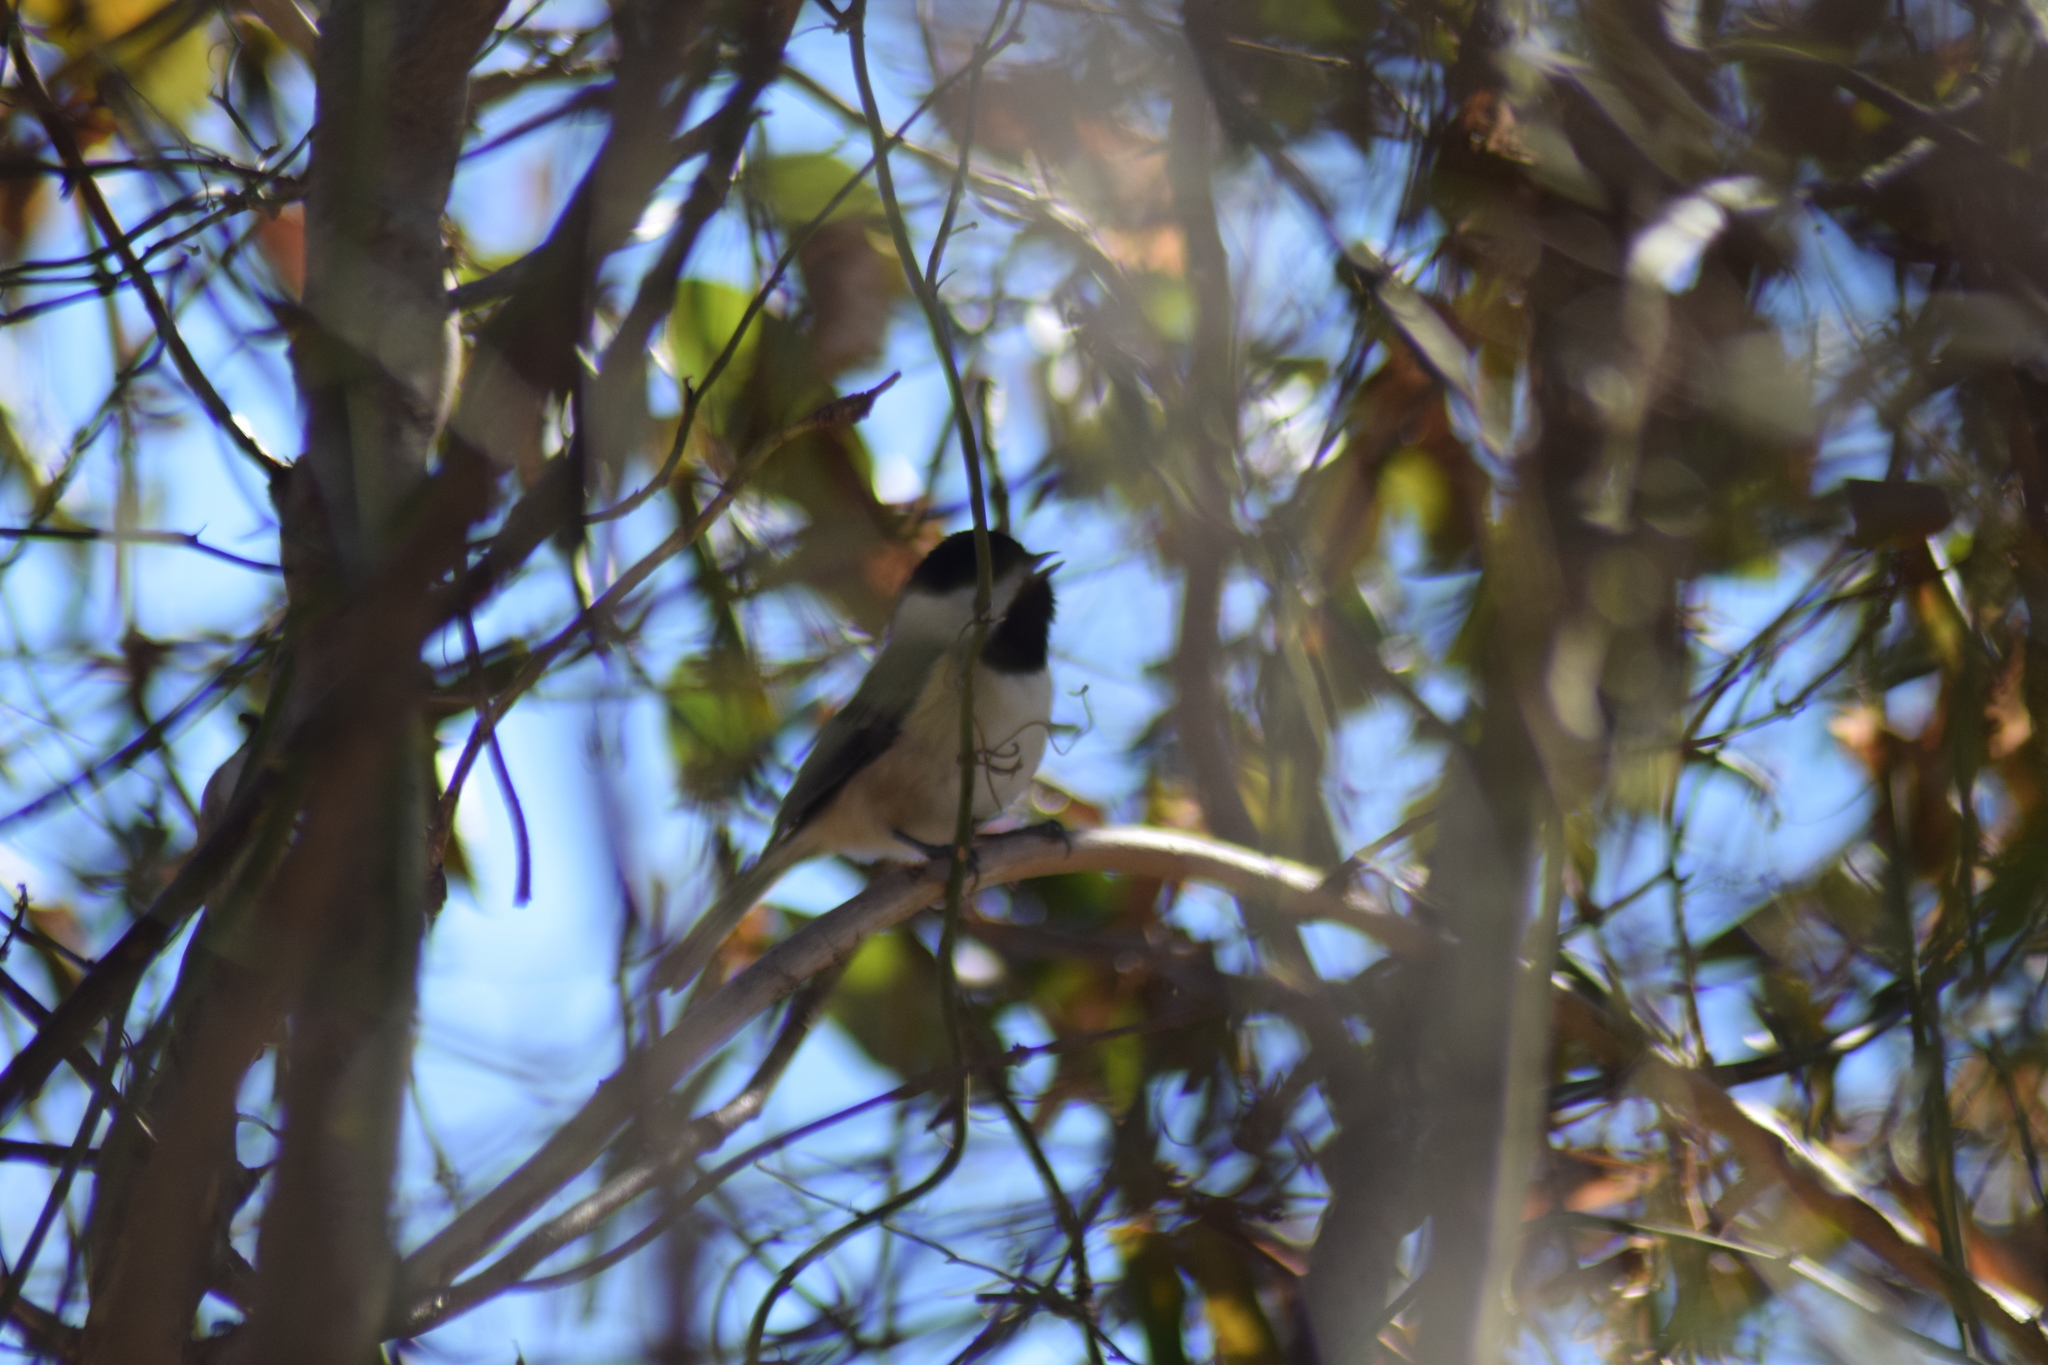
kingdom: Animalia
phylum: Chordata
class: Aves
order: Passeriformes
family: Paridae
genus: Poecile
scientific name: Poecile carolinensis
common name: Carolina chickadee
